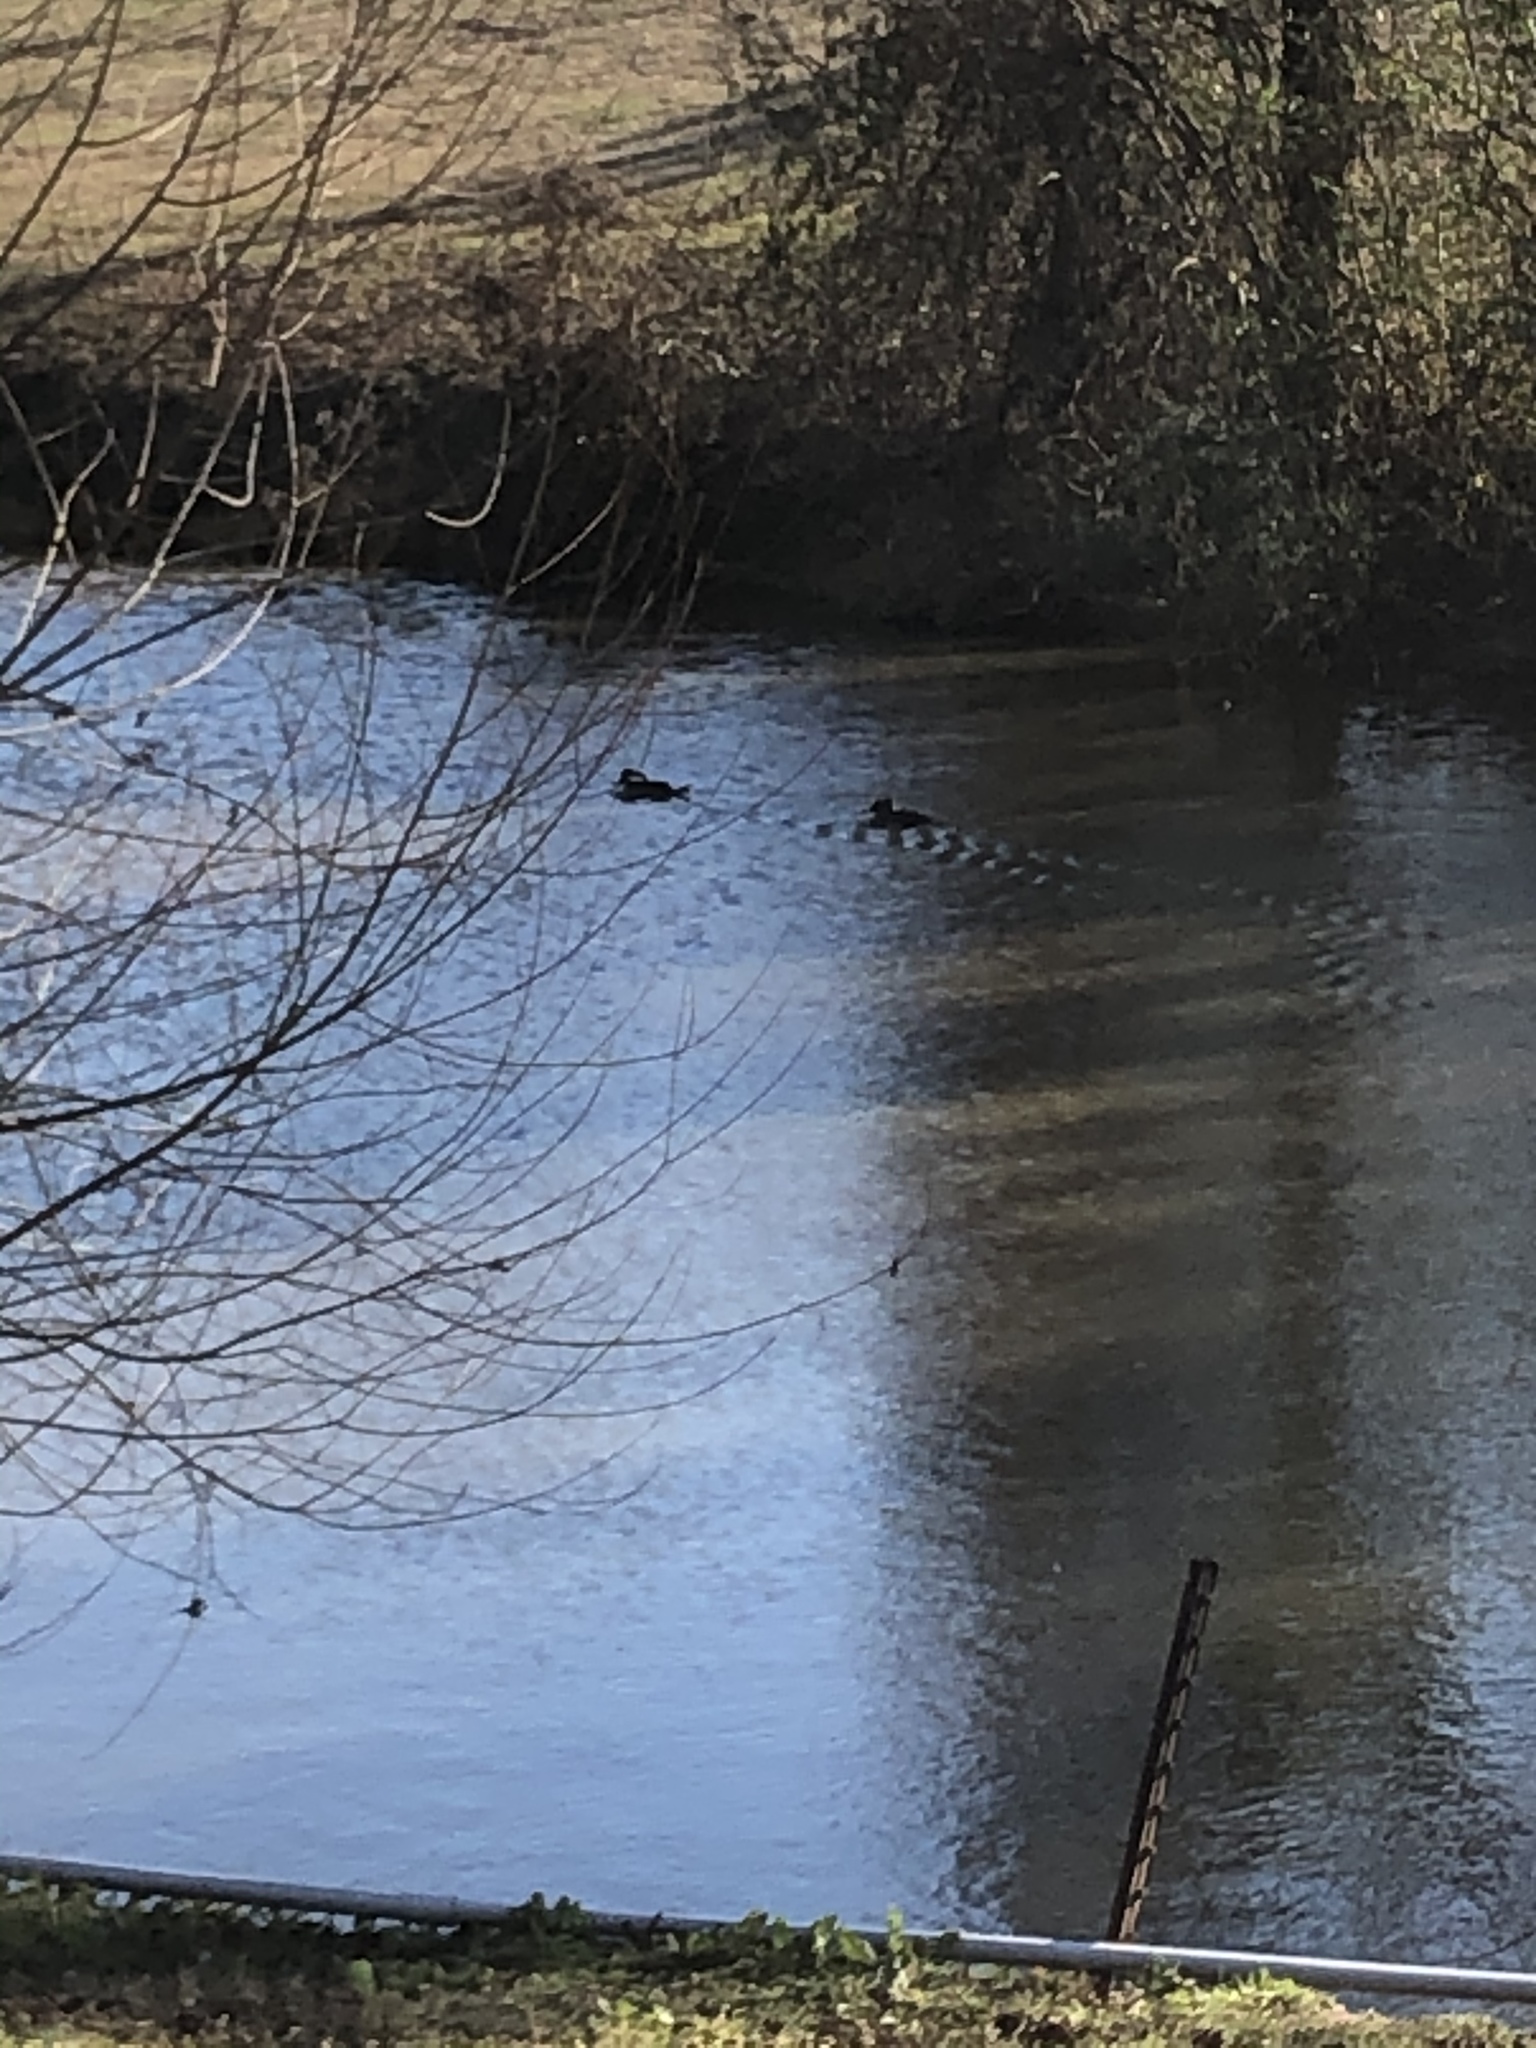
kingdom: Animalia
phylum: Chordata
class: Aves
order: Anseriformes
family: Anatidae
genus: Lophodytes
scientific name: Lophodytes cucullatus
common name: Hooded merganser
